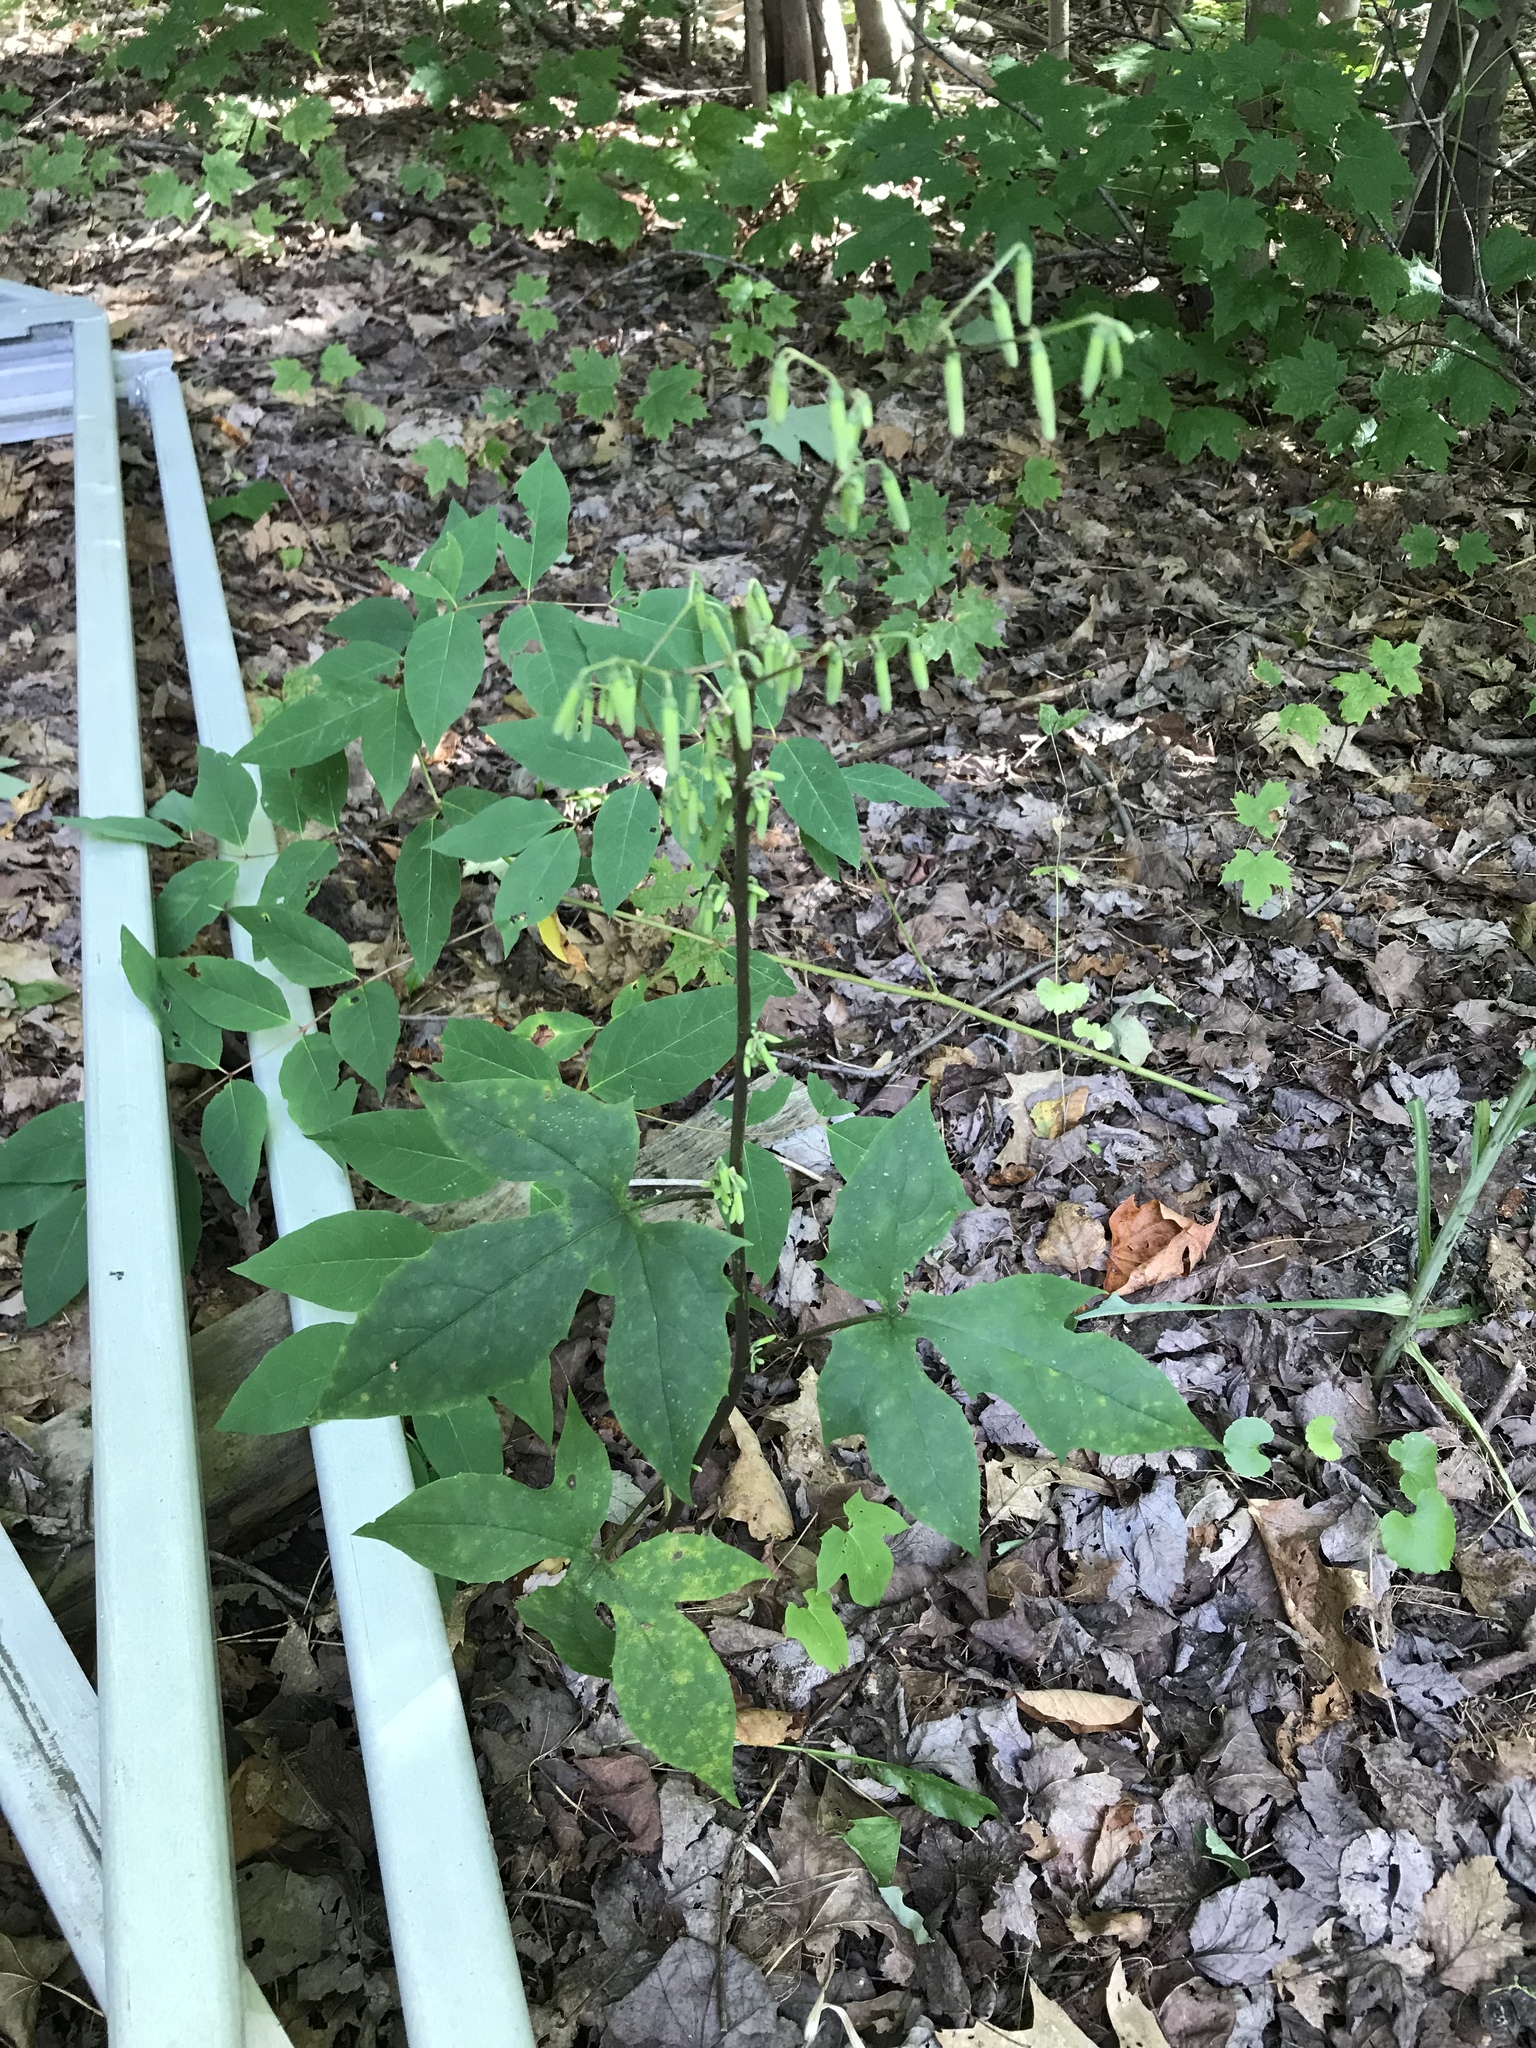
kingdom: Plantae
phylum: Tracheophyta
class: Magnoliopsida
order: Asterales
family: Asteraceae
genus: Nabalus
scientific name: Nabalus altissima
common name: Tall rattlesnakeroot
